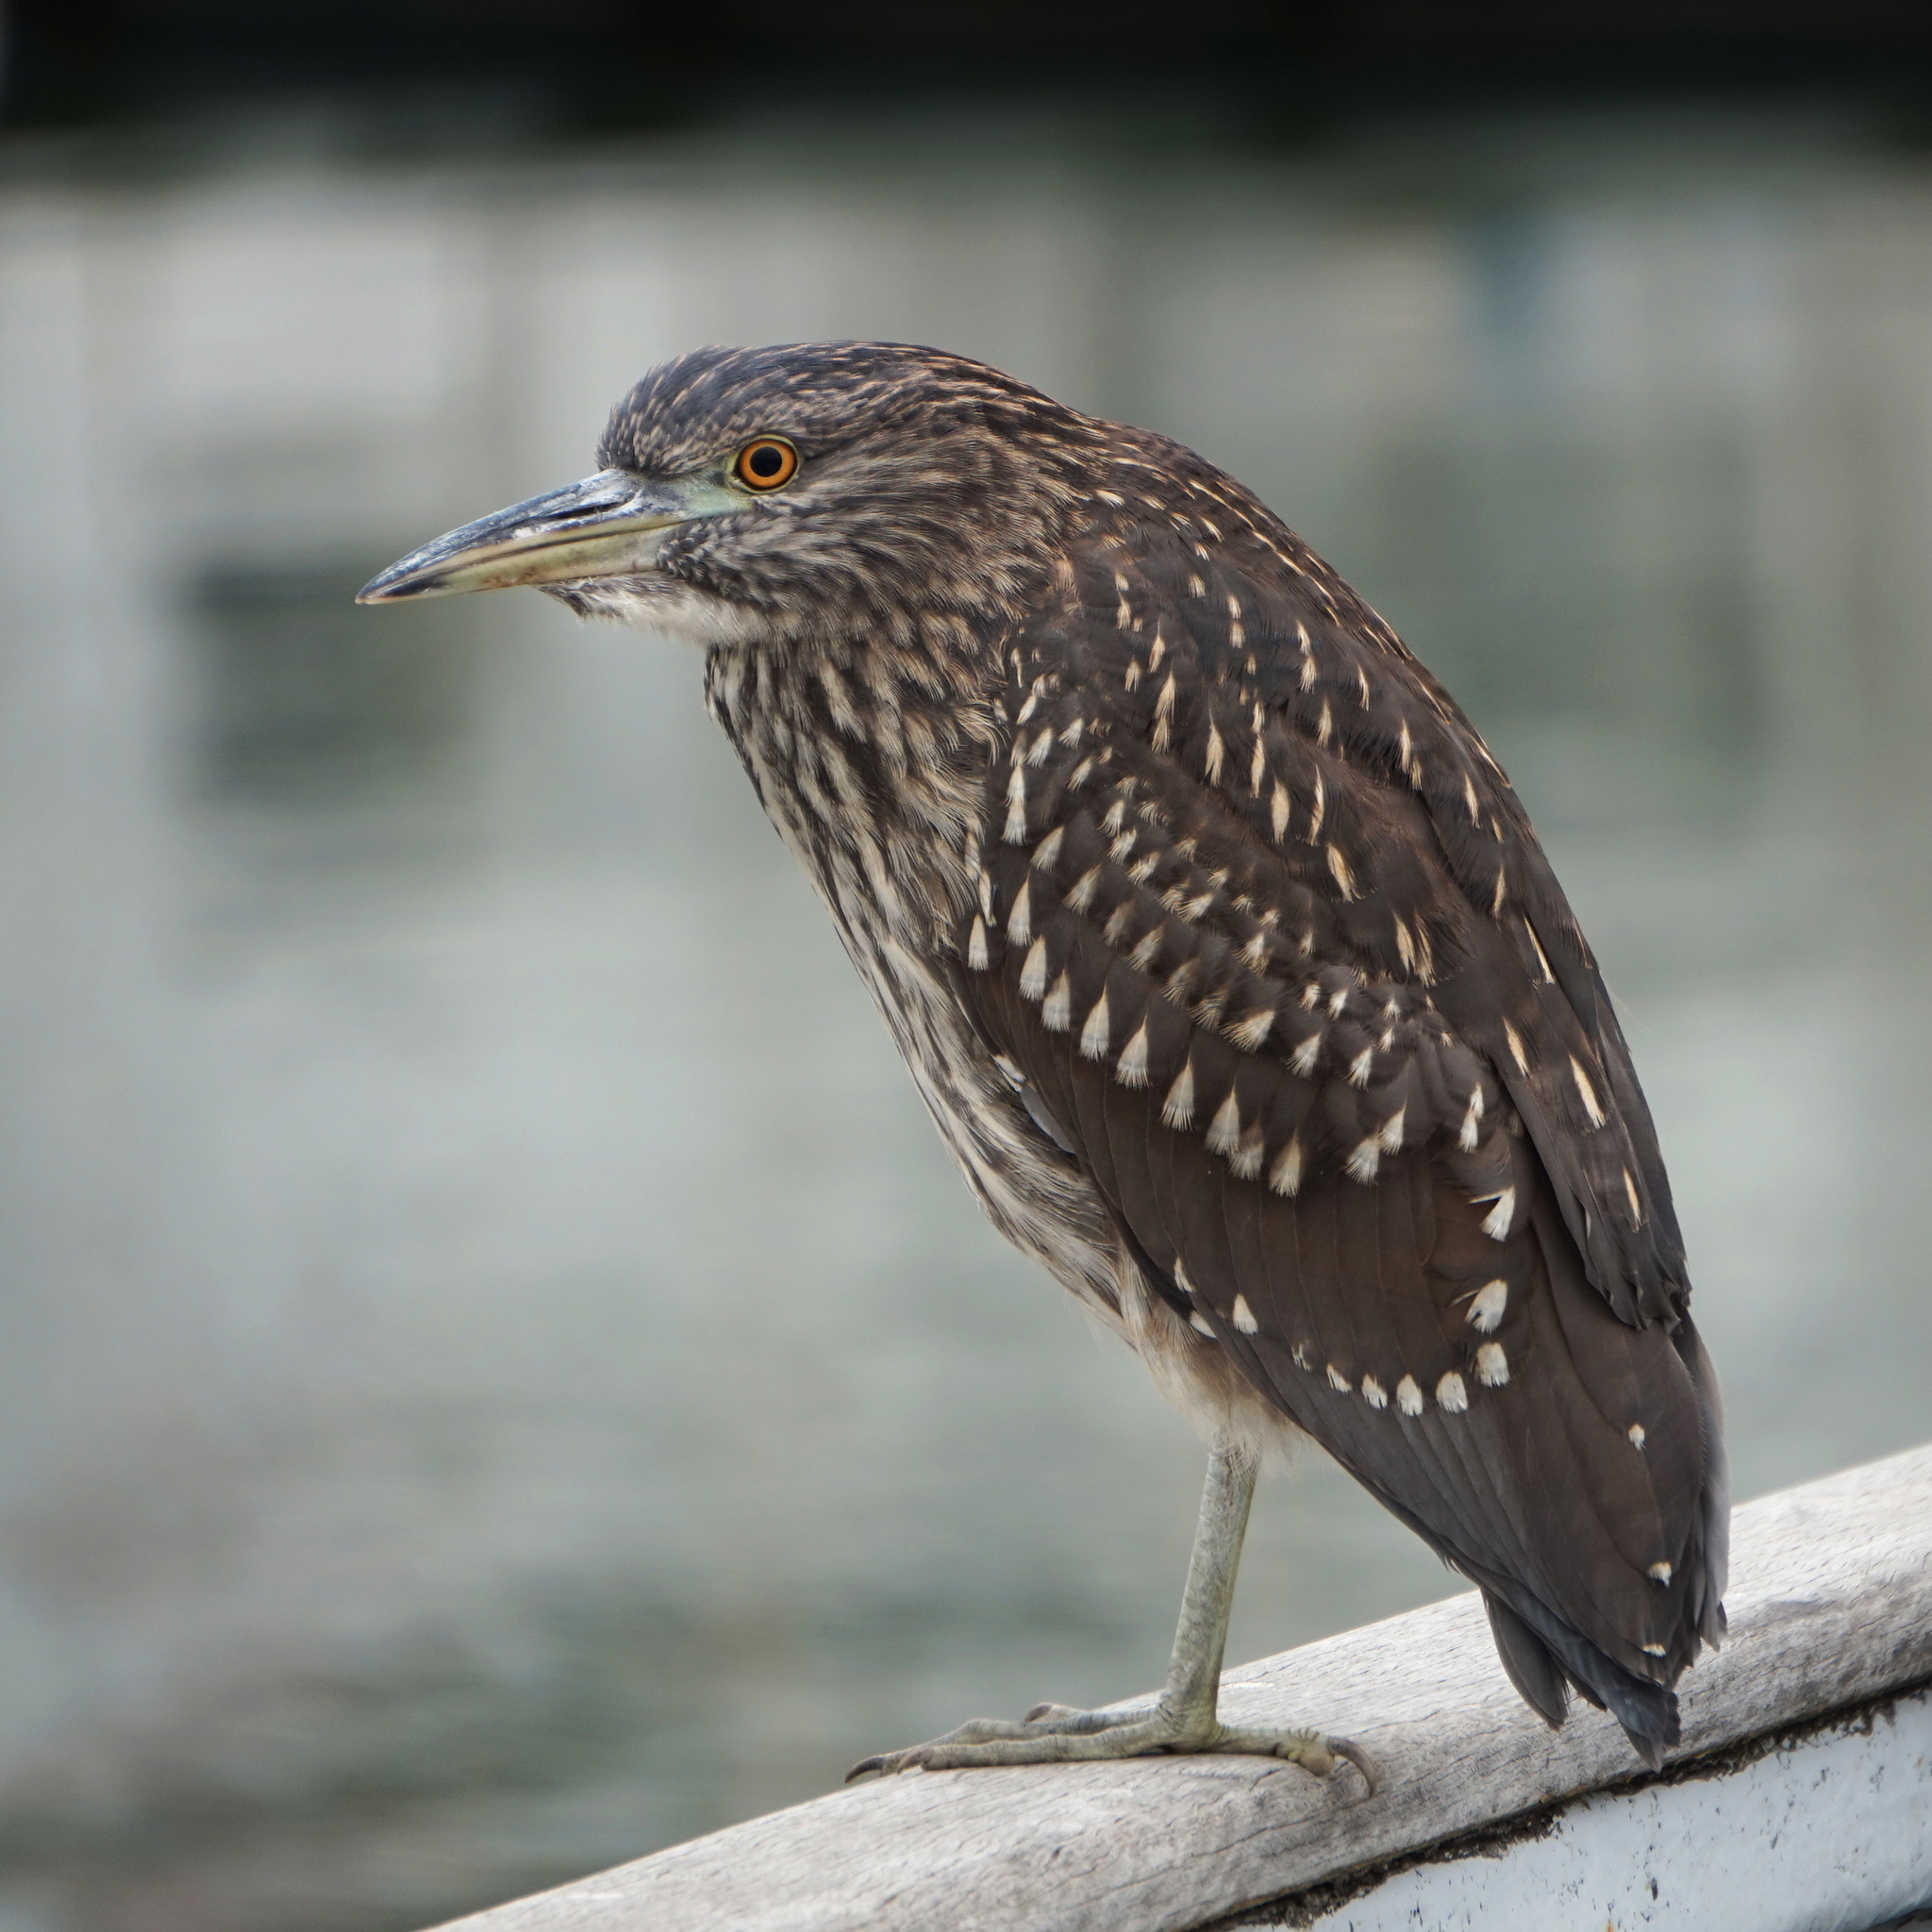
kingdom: Animalia
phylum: Chordata
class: Aves
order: Pelecaniformes
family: Ardeidae
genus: Nycticorax
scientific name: Nycticorax nycticorax
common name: Black-crowned night heron
